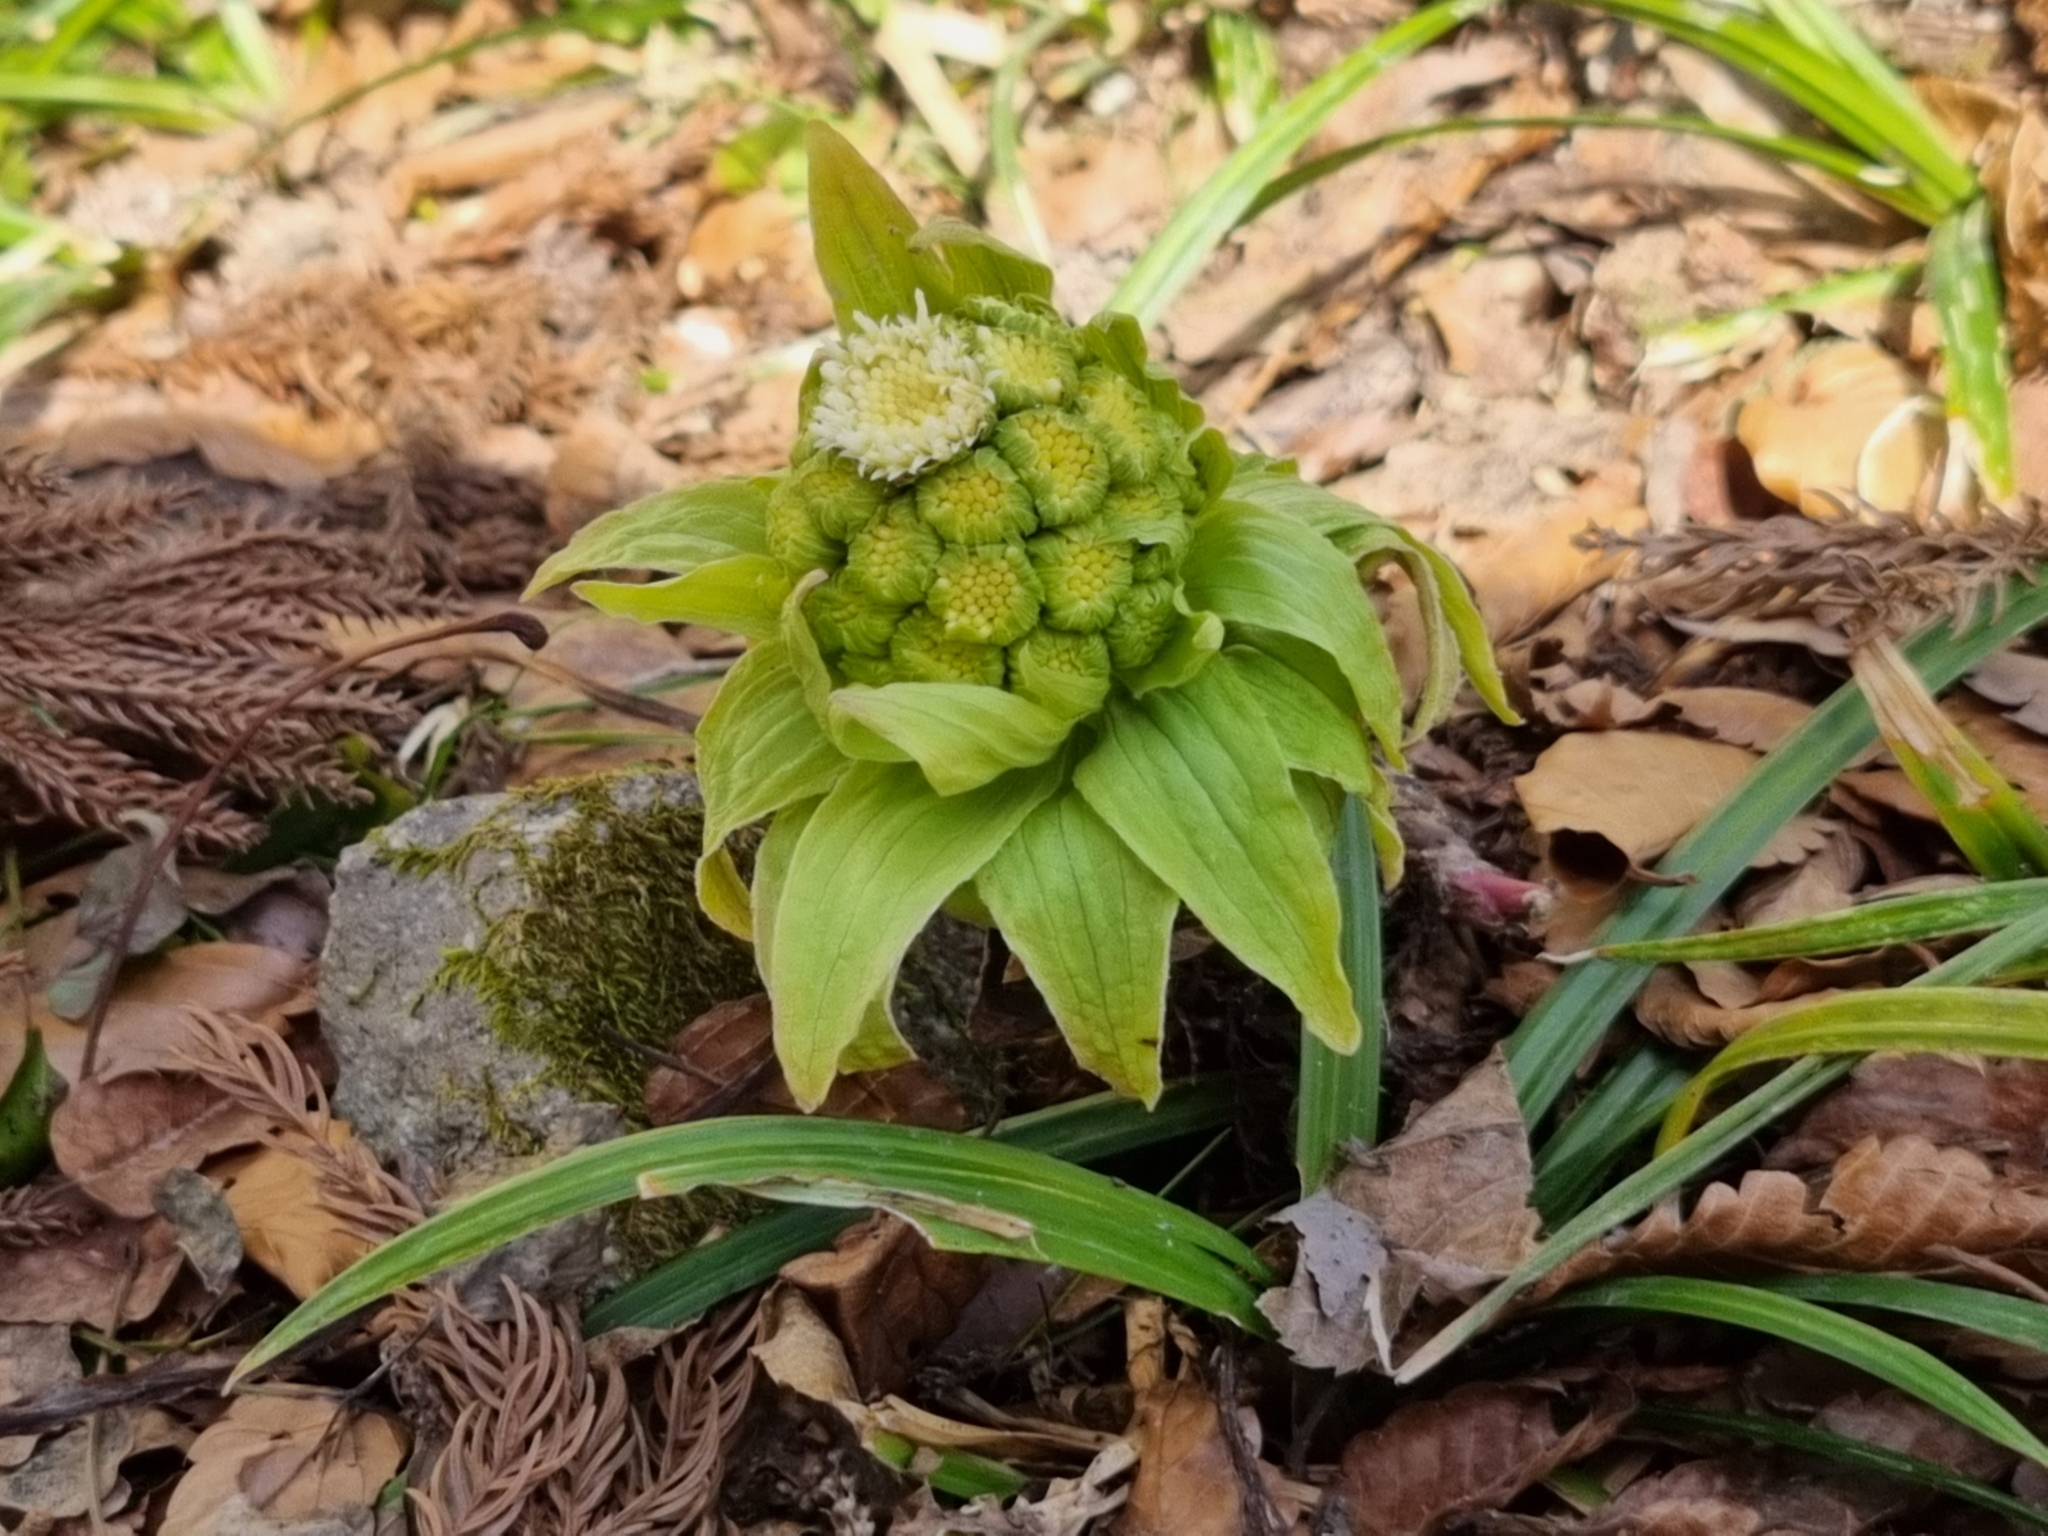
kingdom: Plantae
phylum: Tracheophyta
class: Magnoliopsida
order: Asterales
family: Asteraceae
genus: Petasites
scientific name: Petasites japonicus
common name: Giant butterbur
